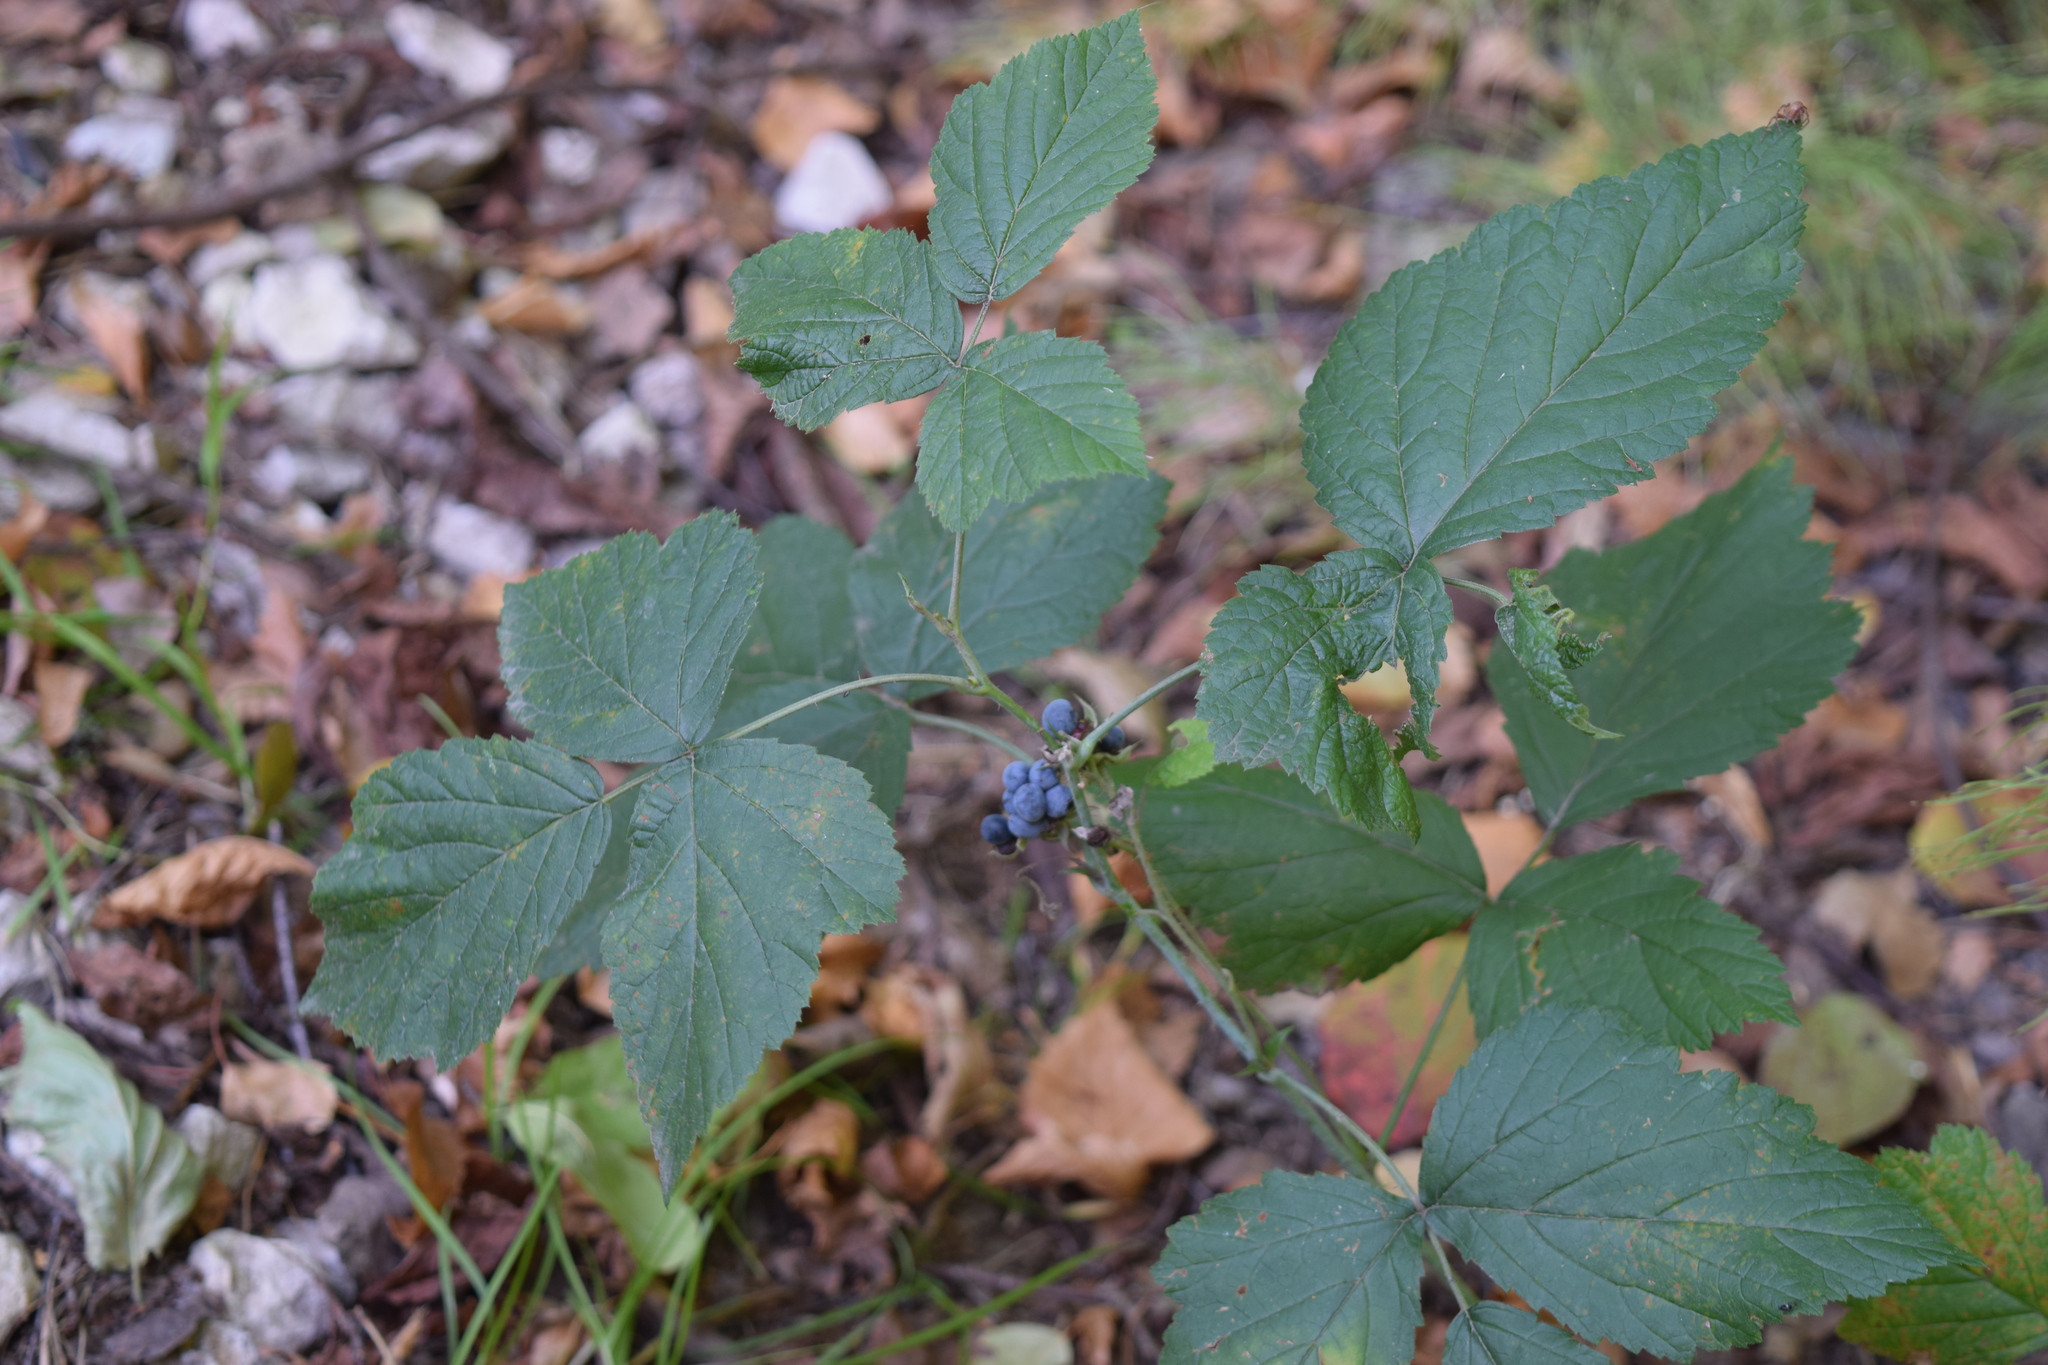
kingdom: Plantae
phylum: Tracheophyta
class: Magnoliopsida
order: Rosales
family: Rosaceae
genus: Rubus
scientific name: Rubus caesius
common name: Dewberry
